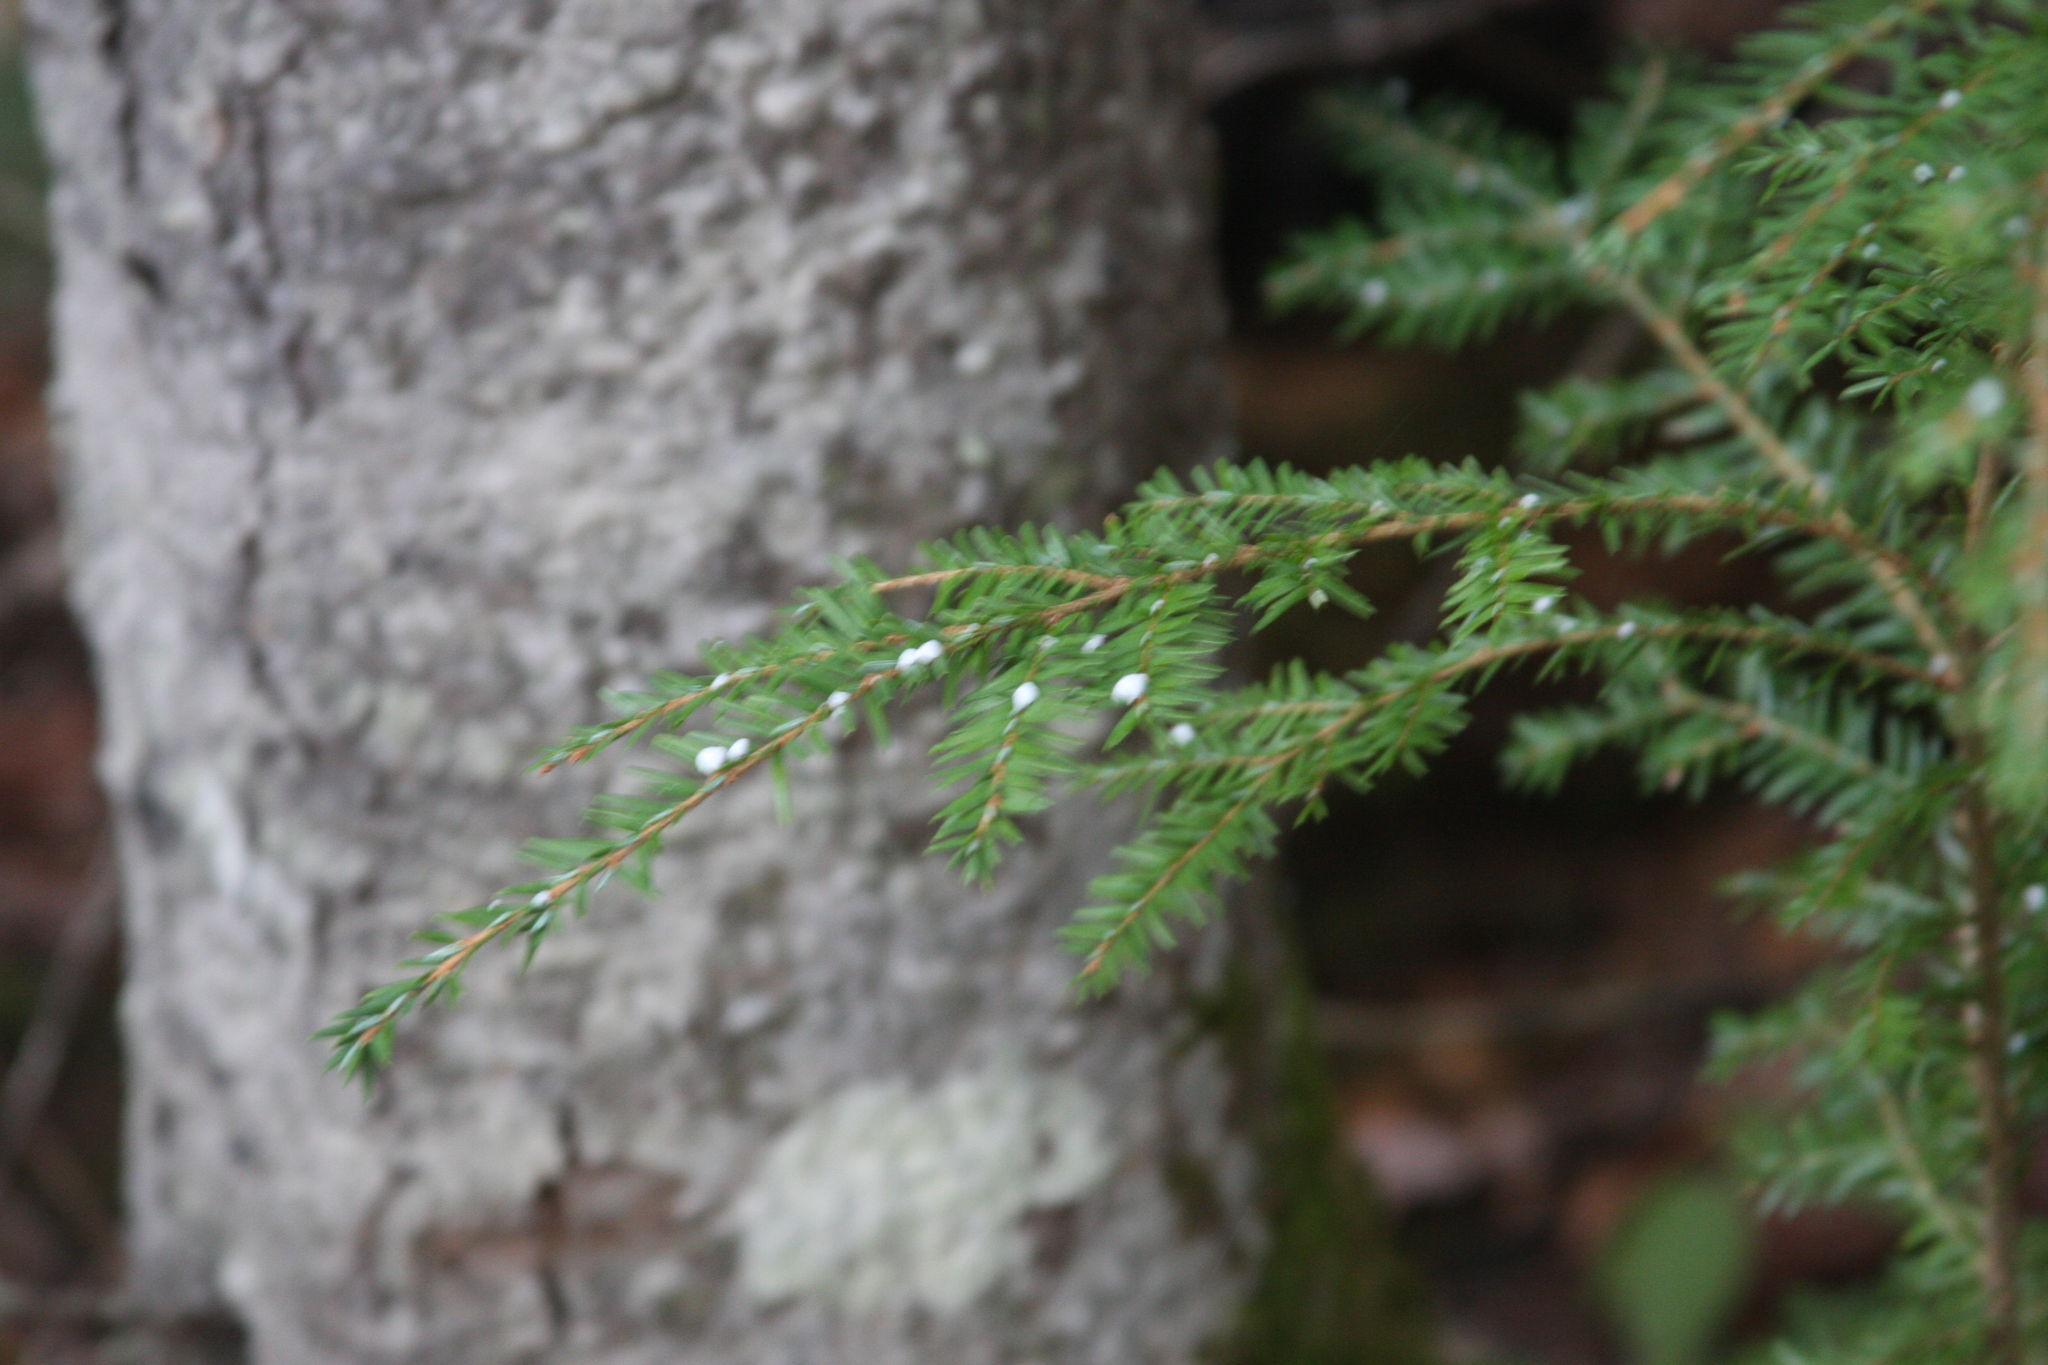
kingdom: Plantae
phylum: Tracheophyta
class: Pinopsida
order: Pinales
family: Pinaceae
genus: Tsuga
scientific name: Tsuga canadensis
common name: Eastern hemlock
